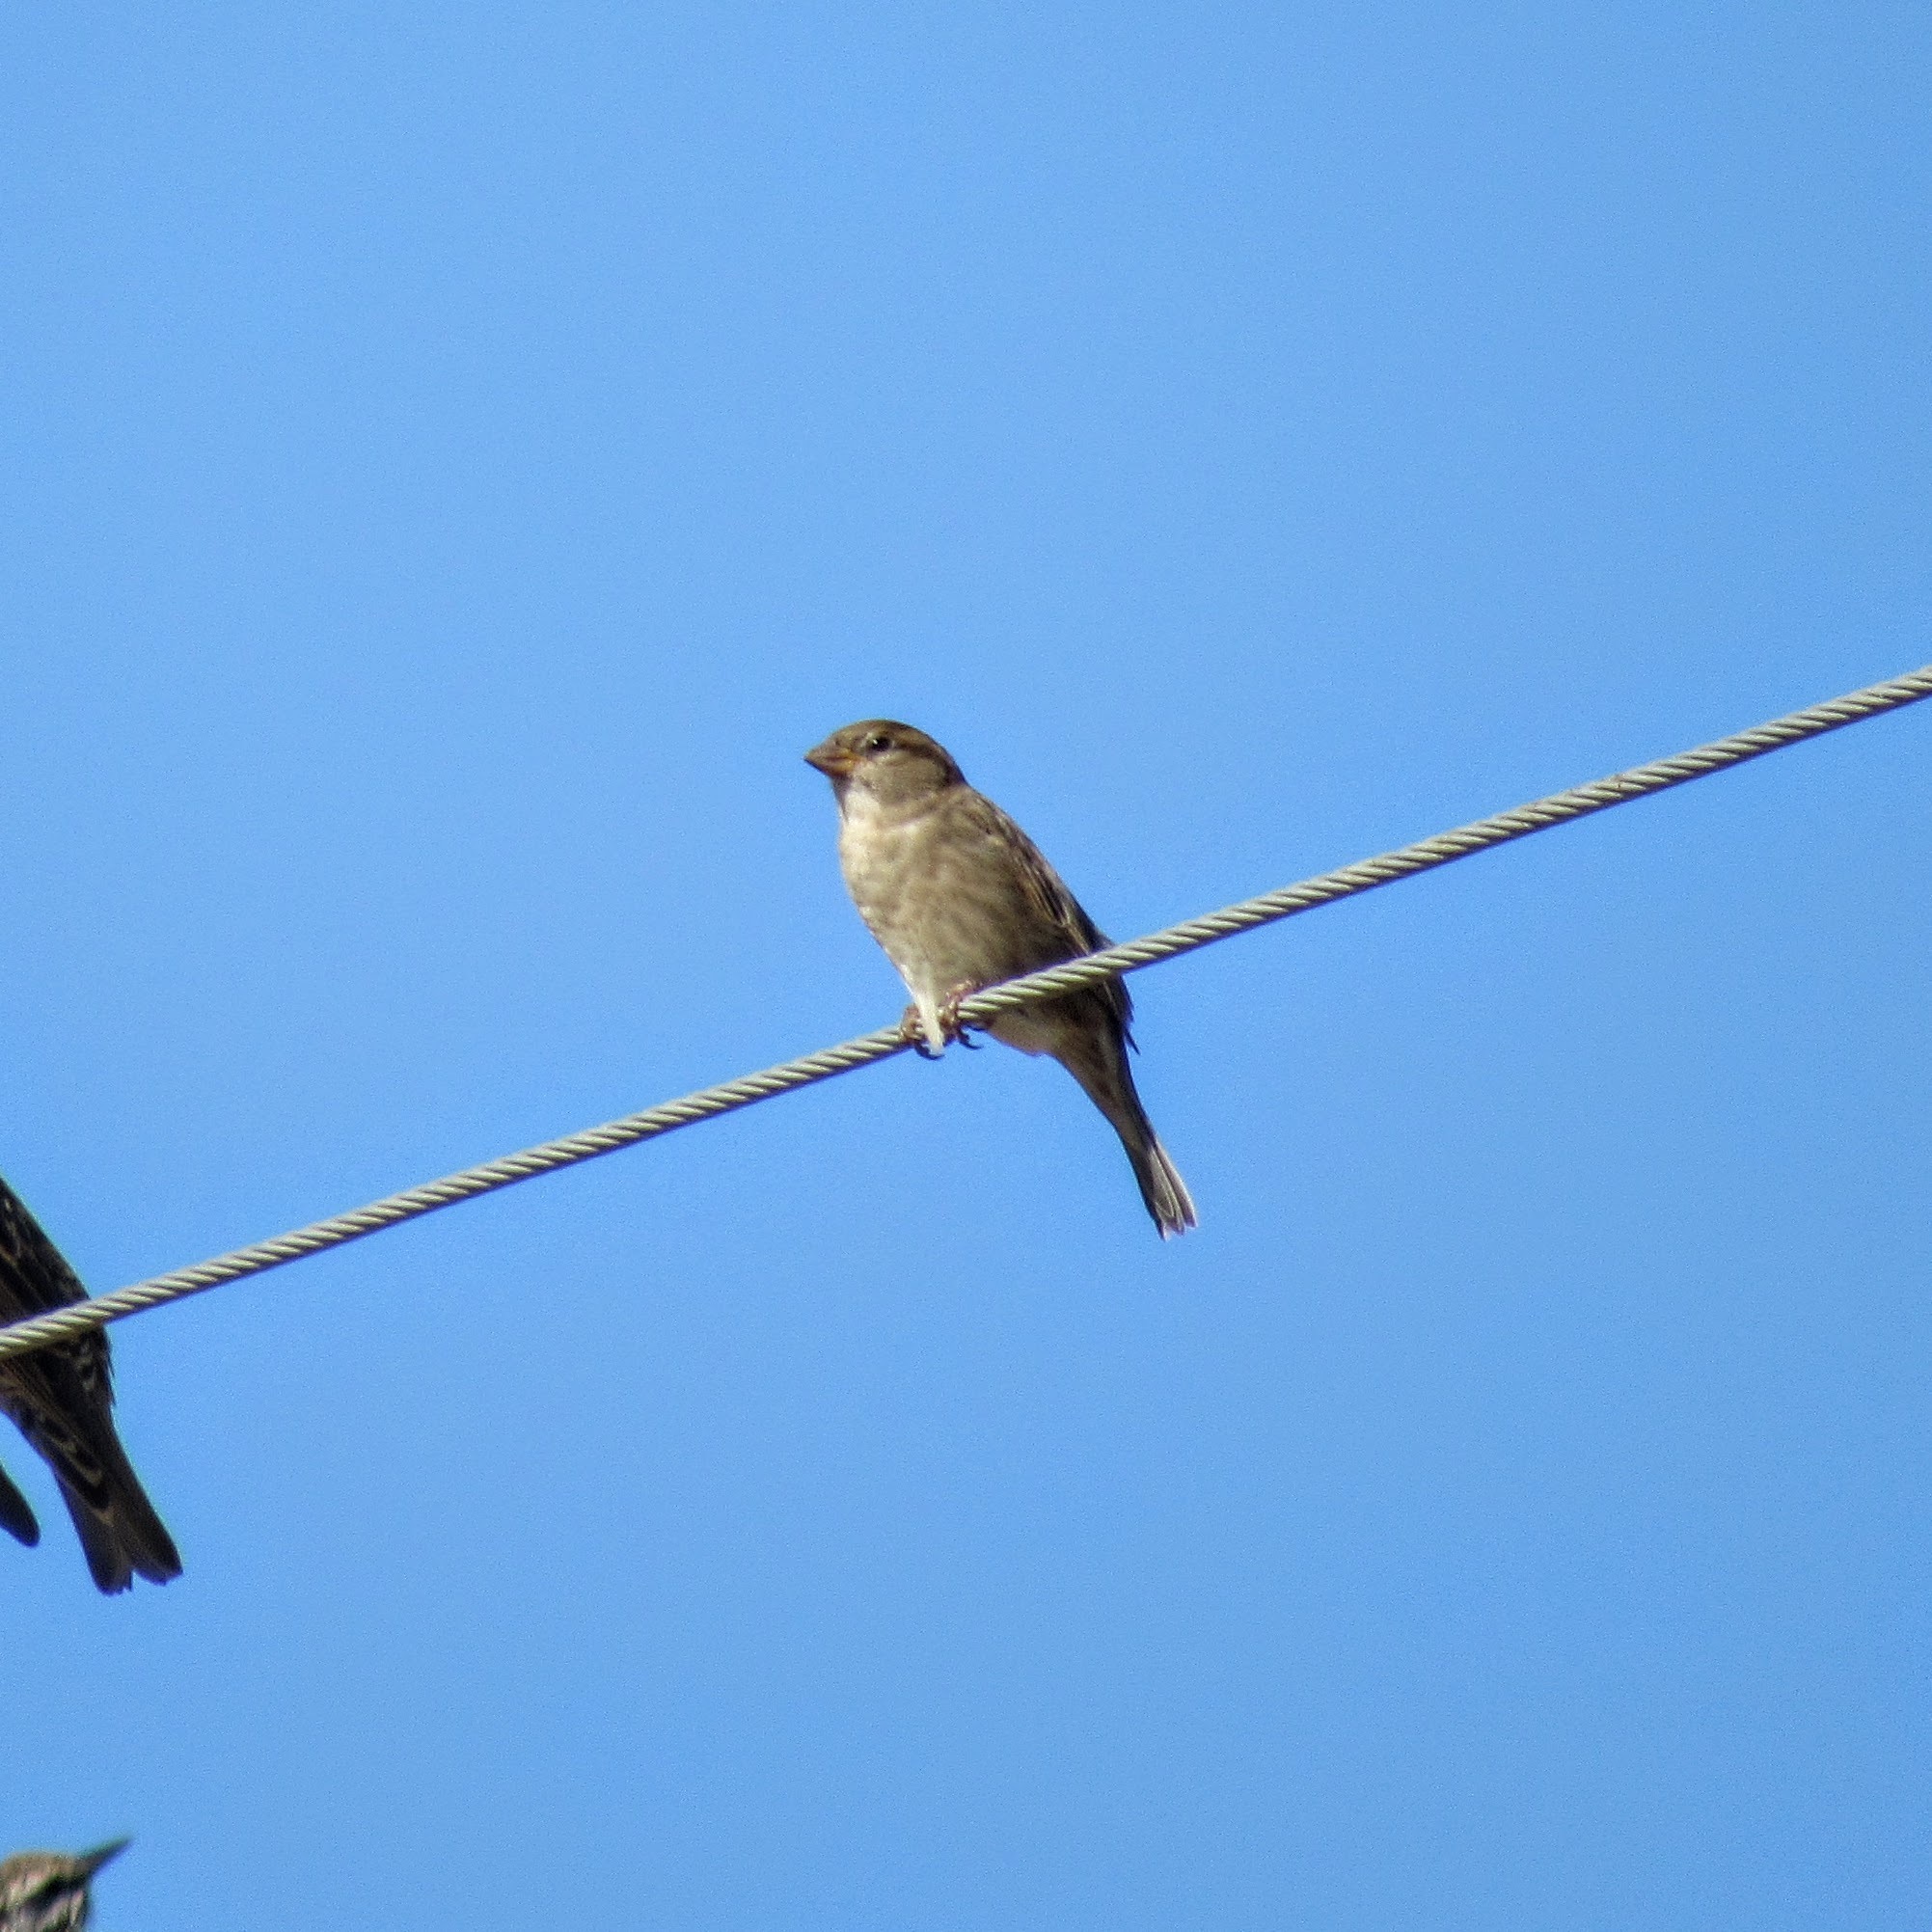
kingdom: Animalia
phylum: Chordata
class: Aves
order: Passeriformes
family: Passeridae
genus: Passer
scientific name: Passer domesticus
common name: House sparrow
